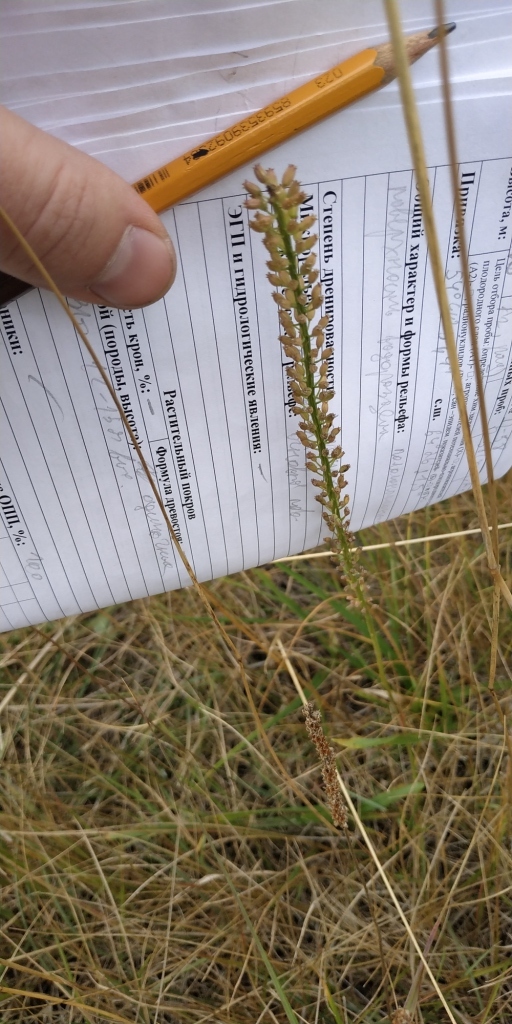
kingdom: Plantae
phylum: Tracheophyta
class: Liliopsida
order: Alismatales
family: Juncaginaceae
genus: Triglochin
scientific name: Triglochin maritima
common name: Sea arrowgrass
